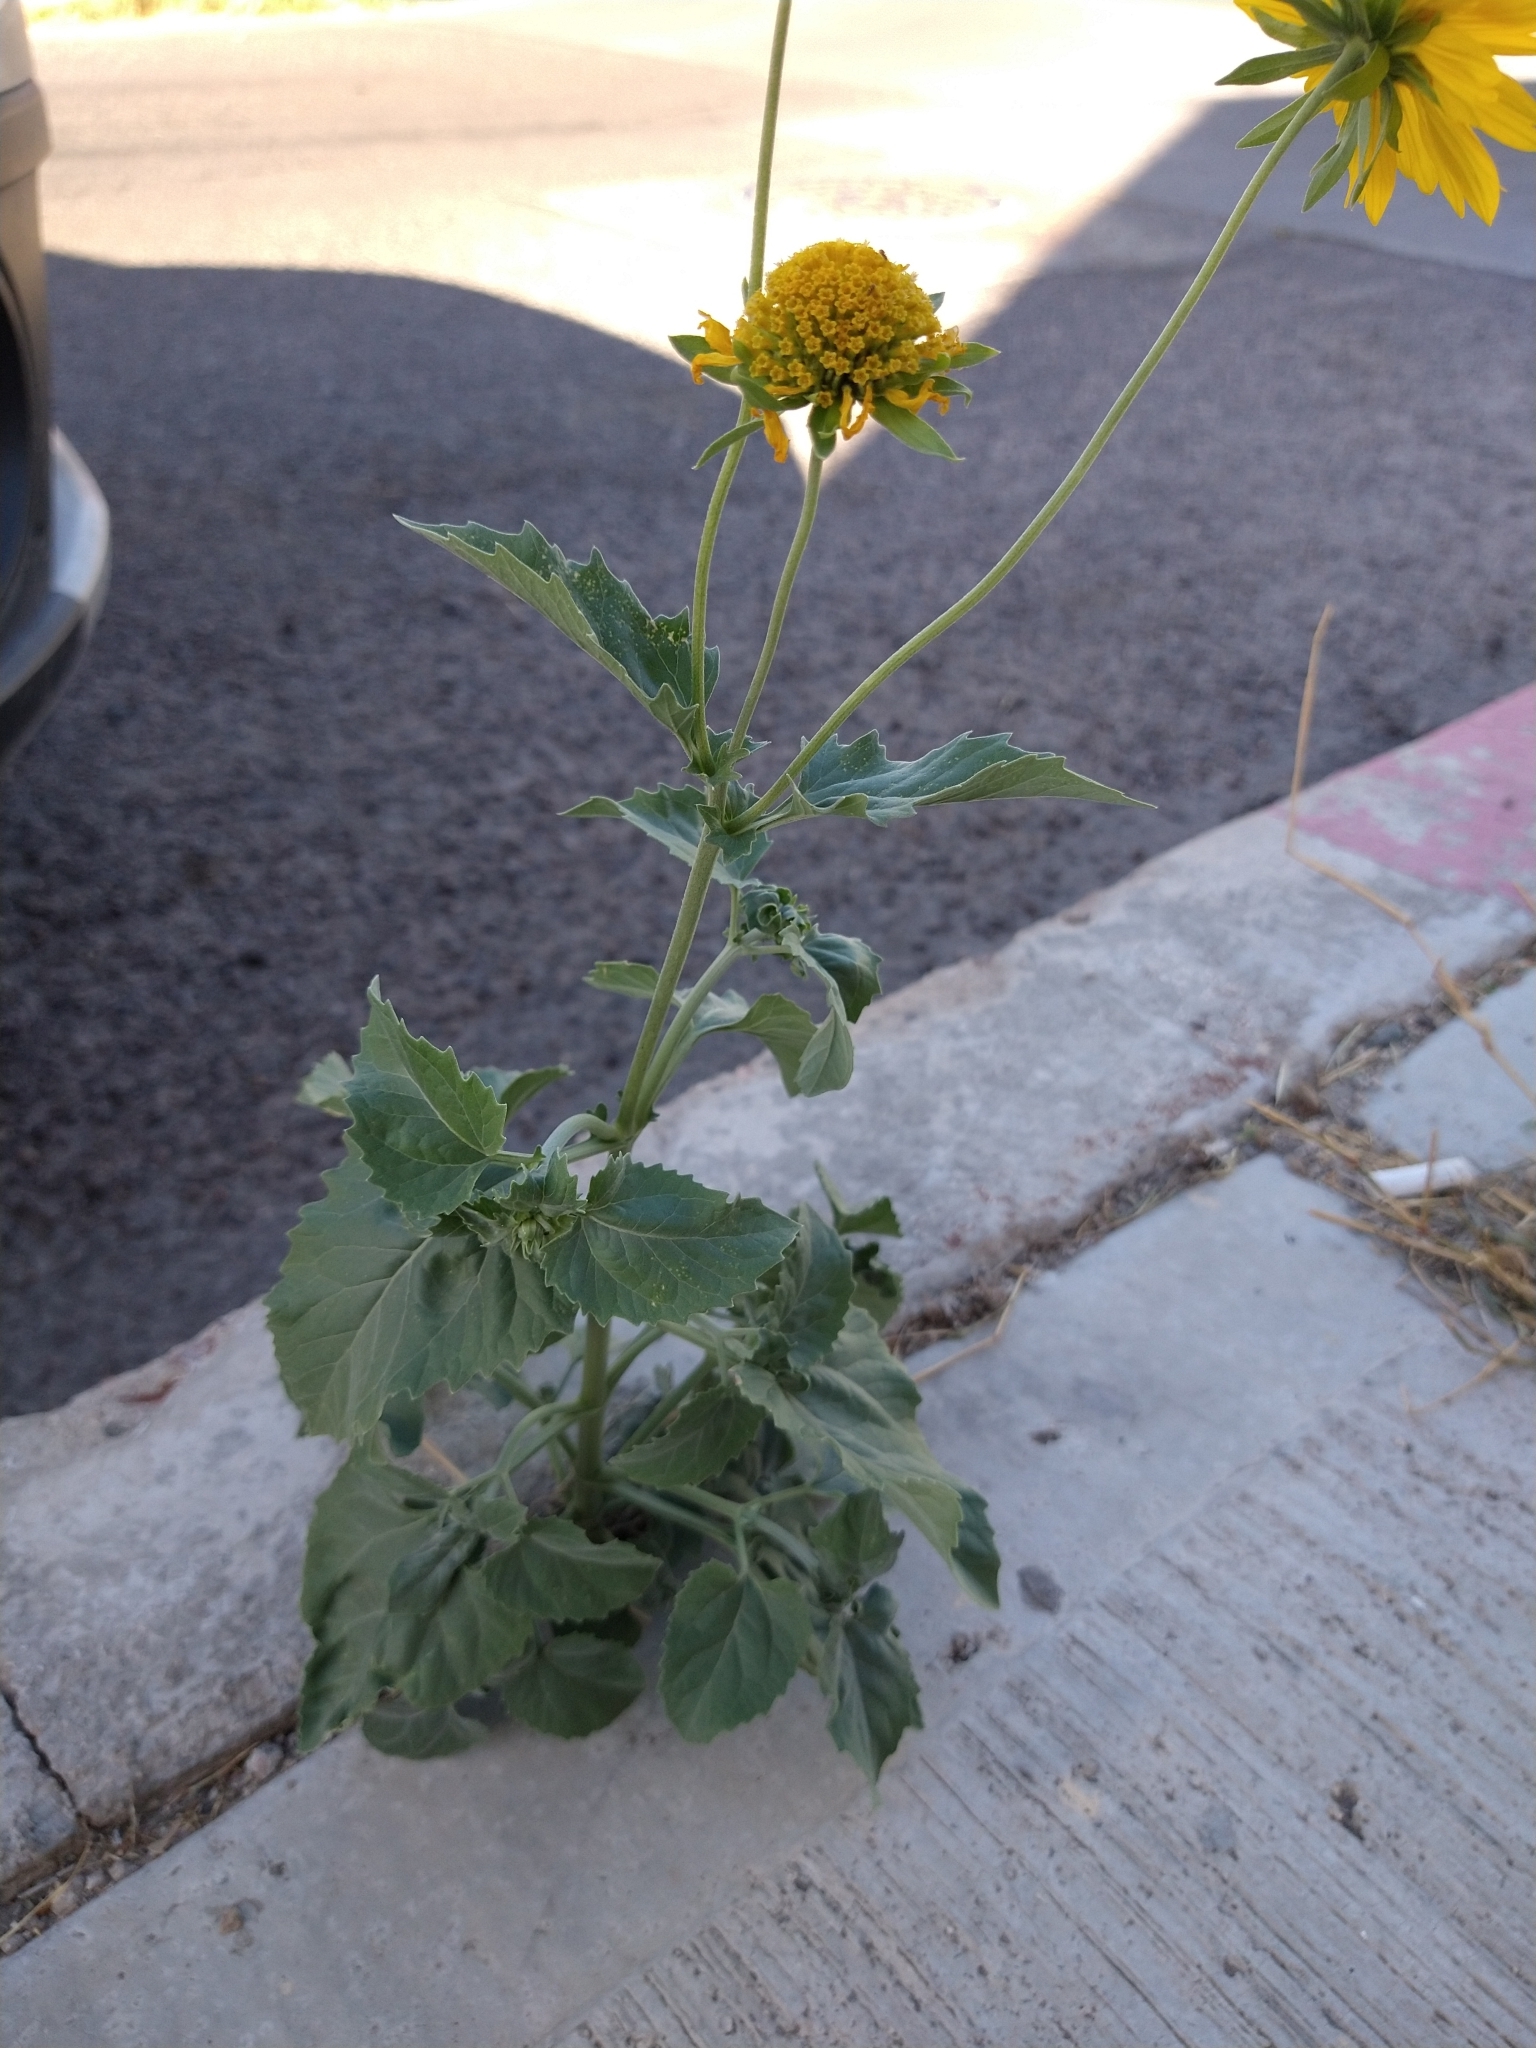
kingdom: Plantae
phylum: Tracheophyta
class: Magnoliopsida
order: Asterales
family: Asteraceae
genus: Verbesina
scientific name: Verbesina encelioides
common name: Golden crownbeard
